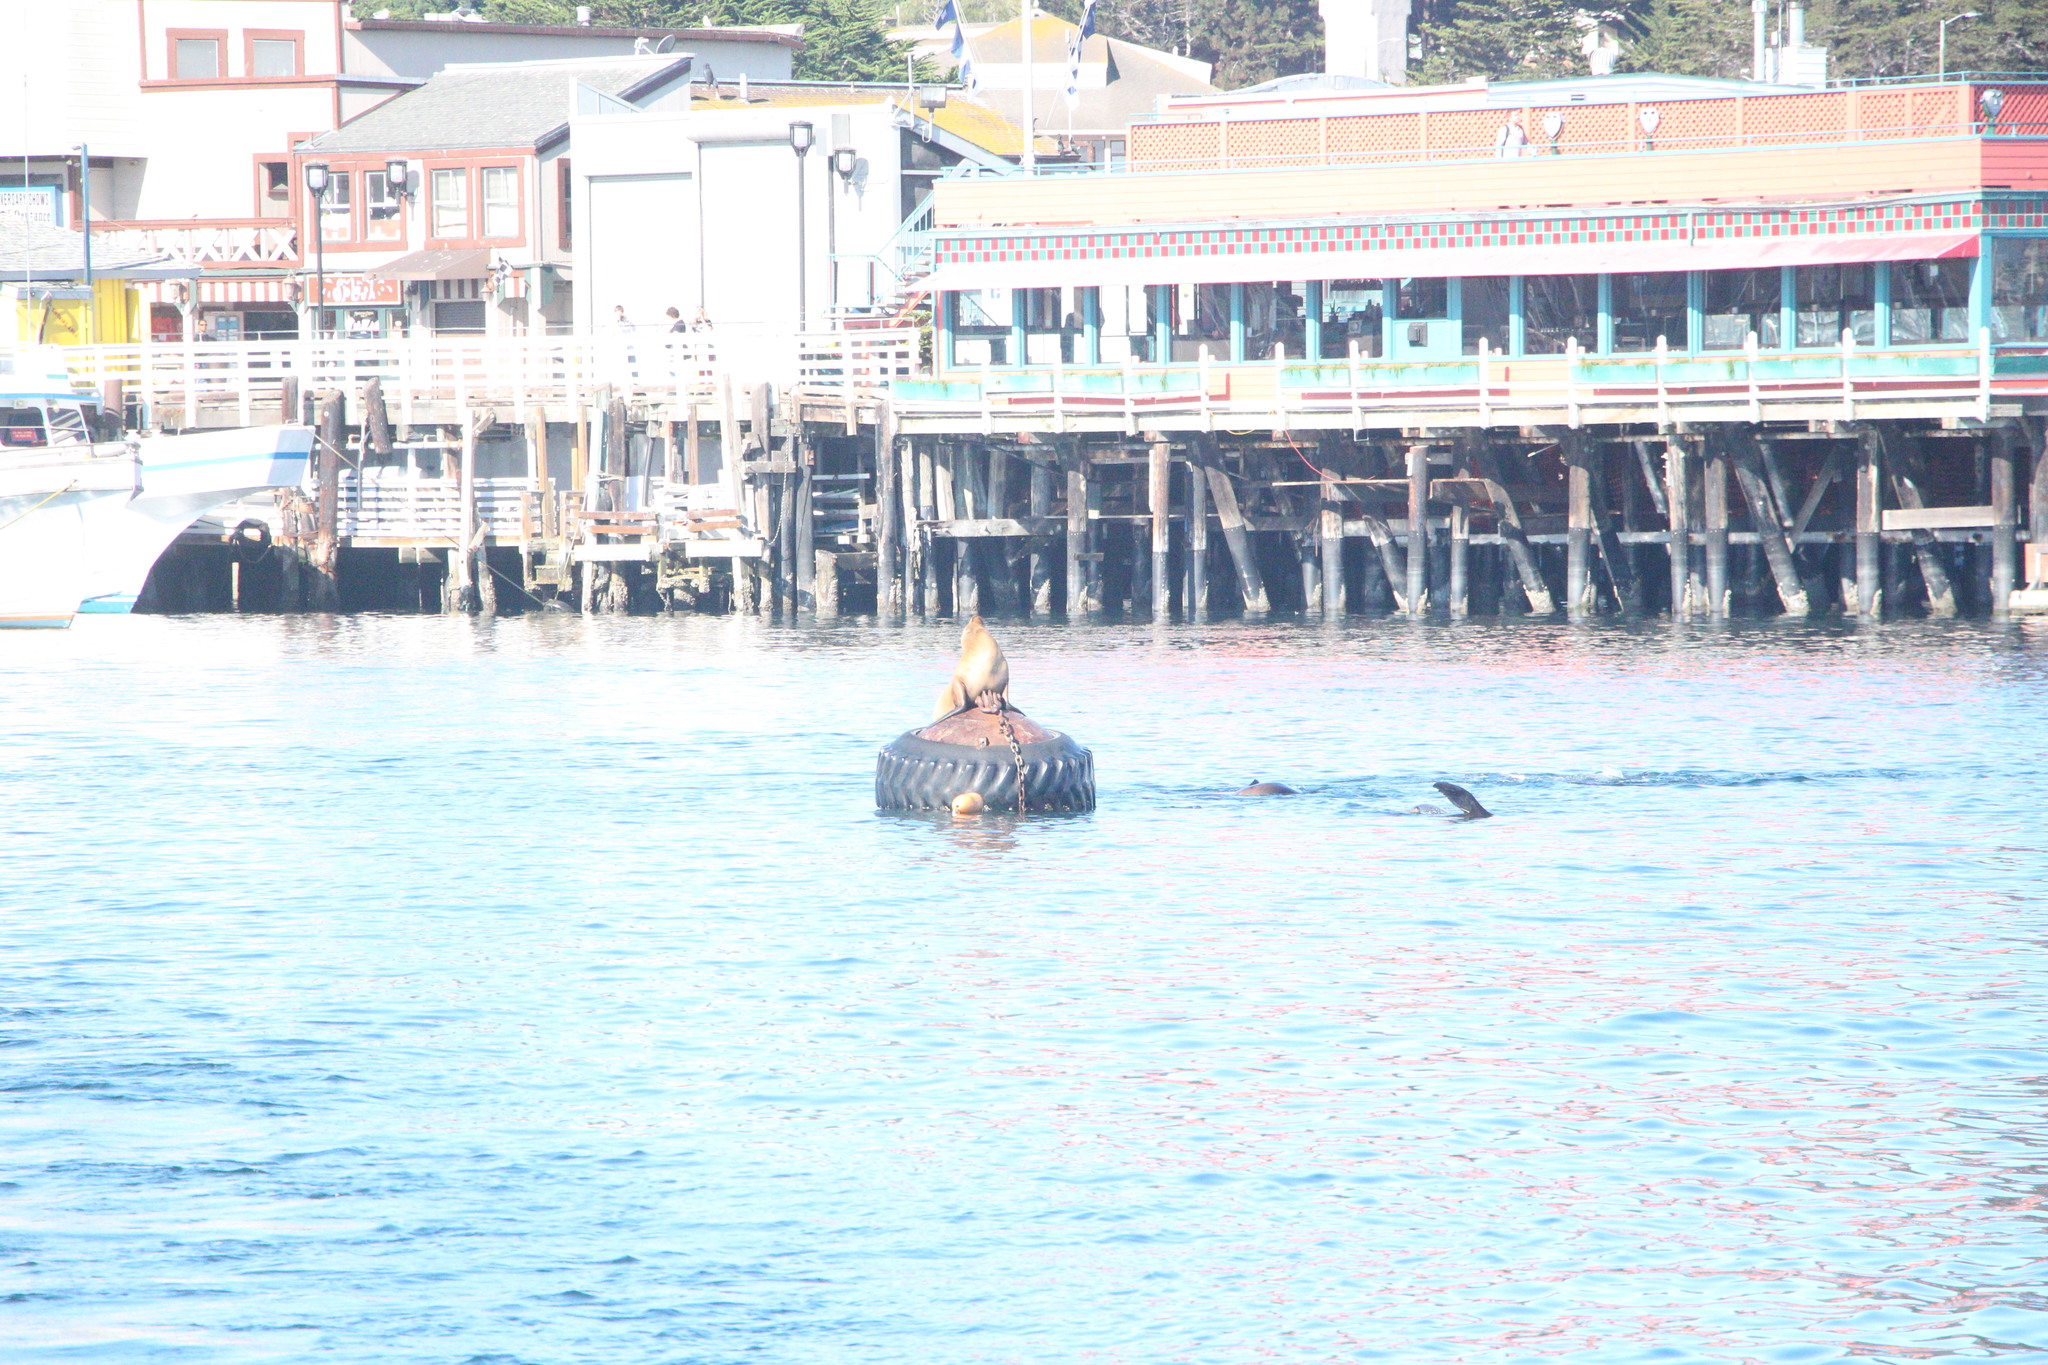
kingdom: Animalia
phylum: Chordata
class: Mammalia
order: Carnivora
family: Otariidae
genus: Zalophus
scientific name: Zalophus californianus
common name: California sea lion
